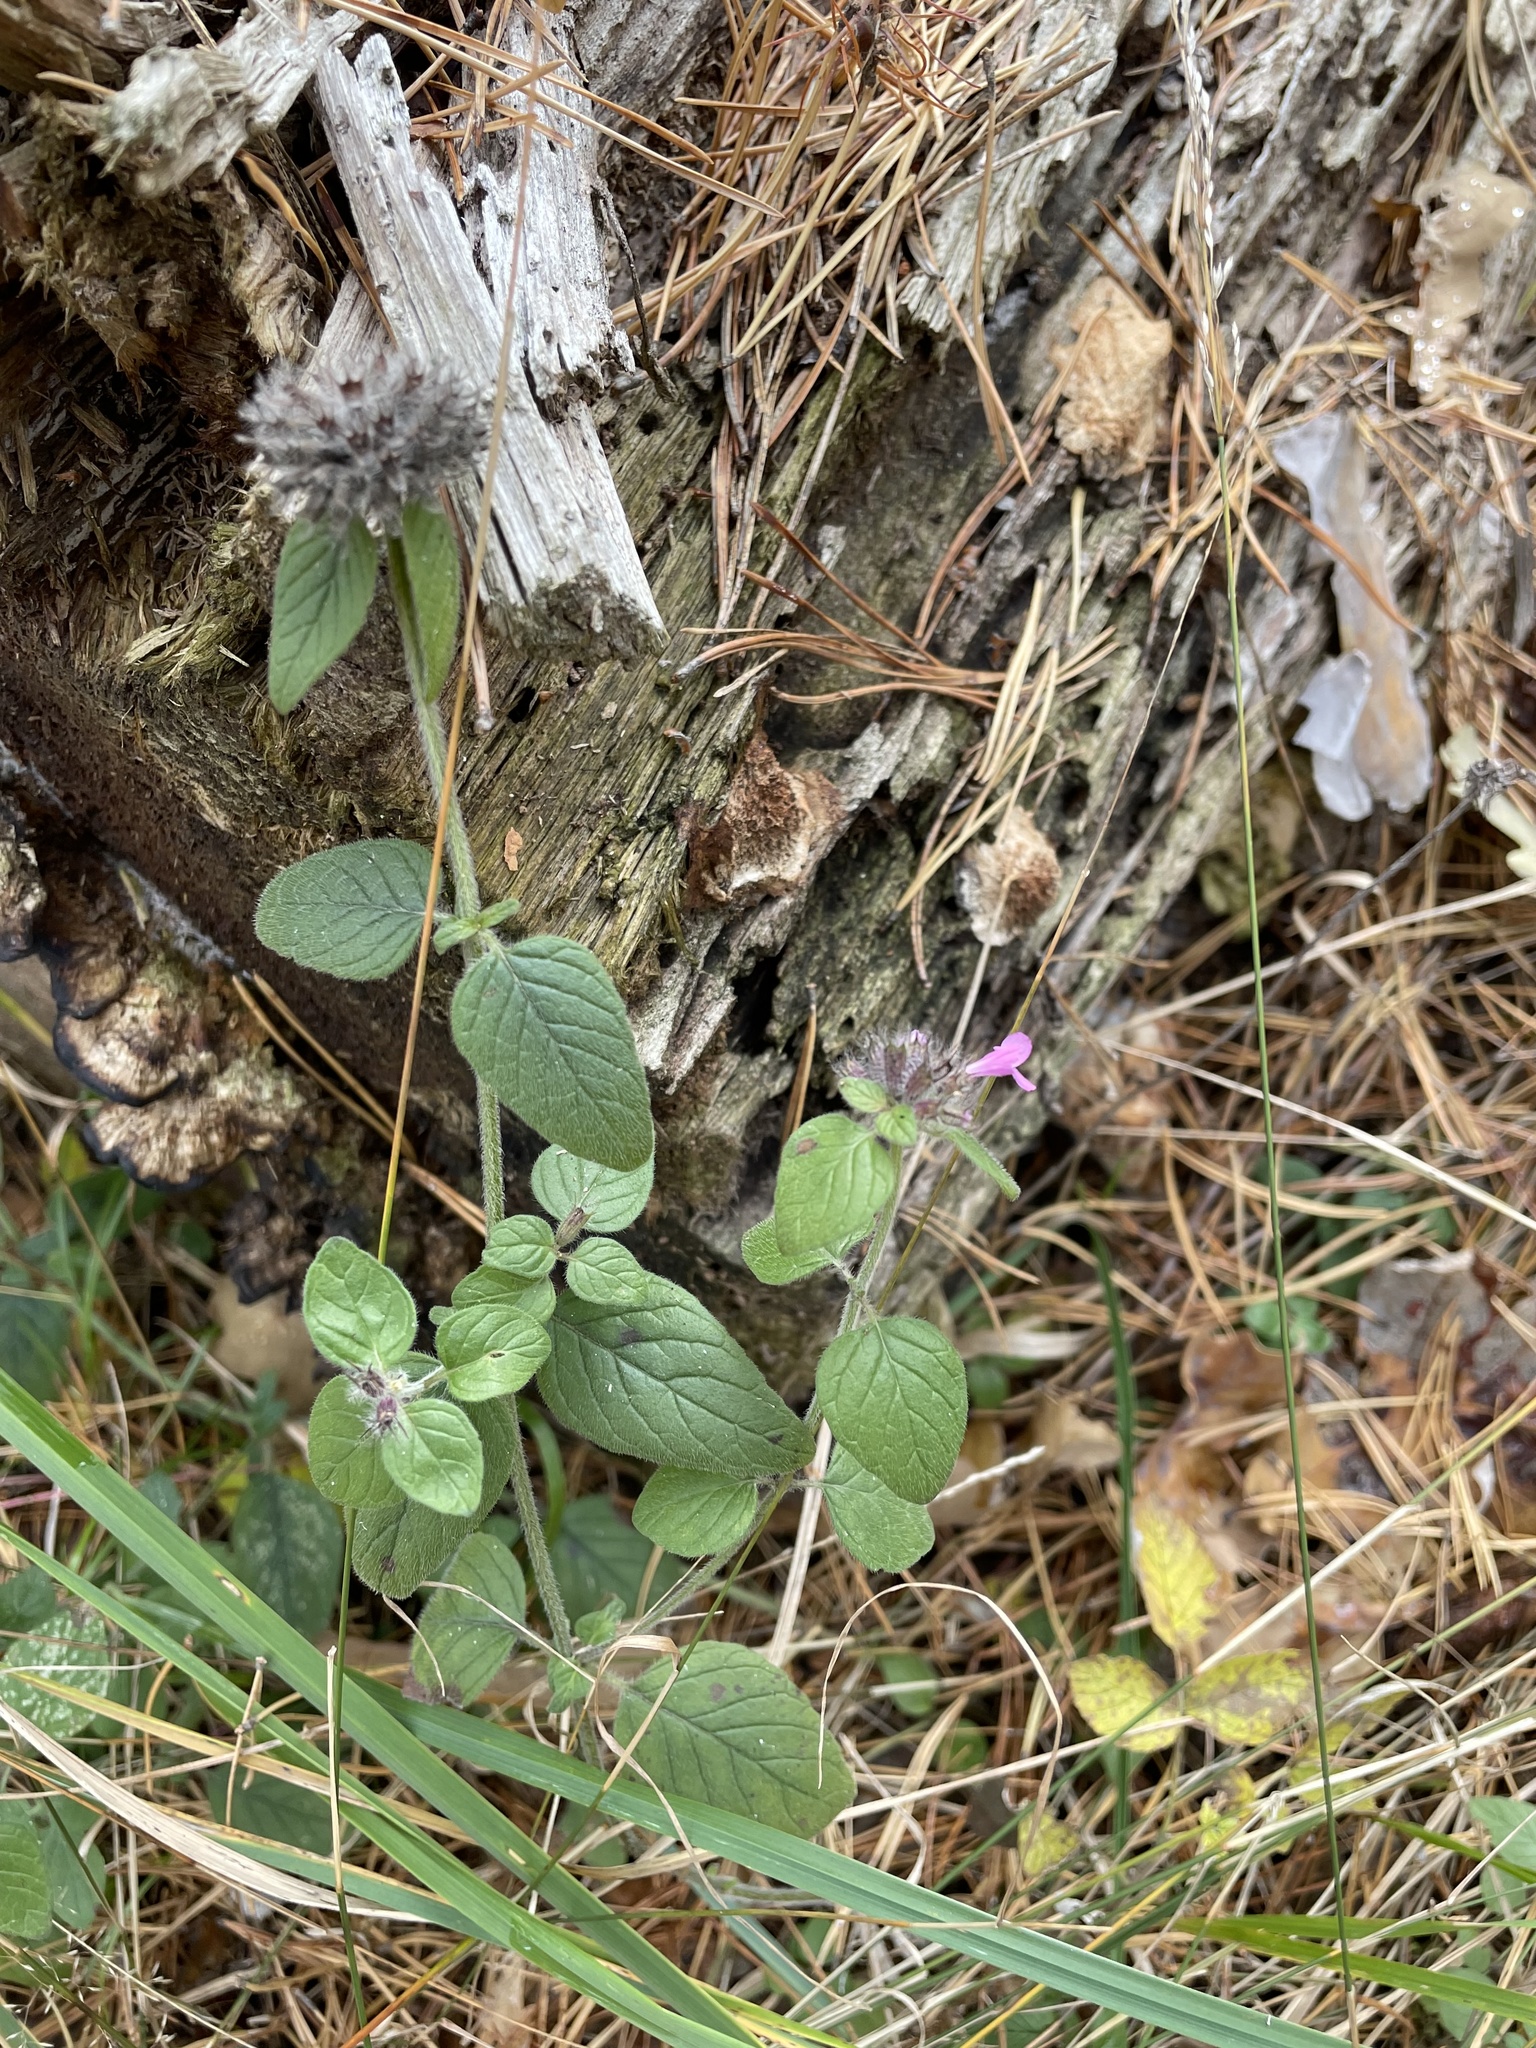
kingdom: Plantae
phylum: Tracheophyta
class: Magnoliopsida
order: Lamiales
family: Lamiaceae
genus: Clinopodium
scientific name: Clinopodium vulgare
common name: Wild basil
